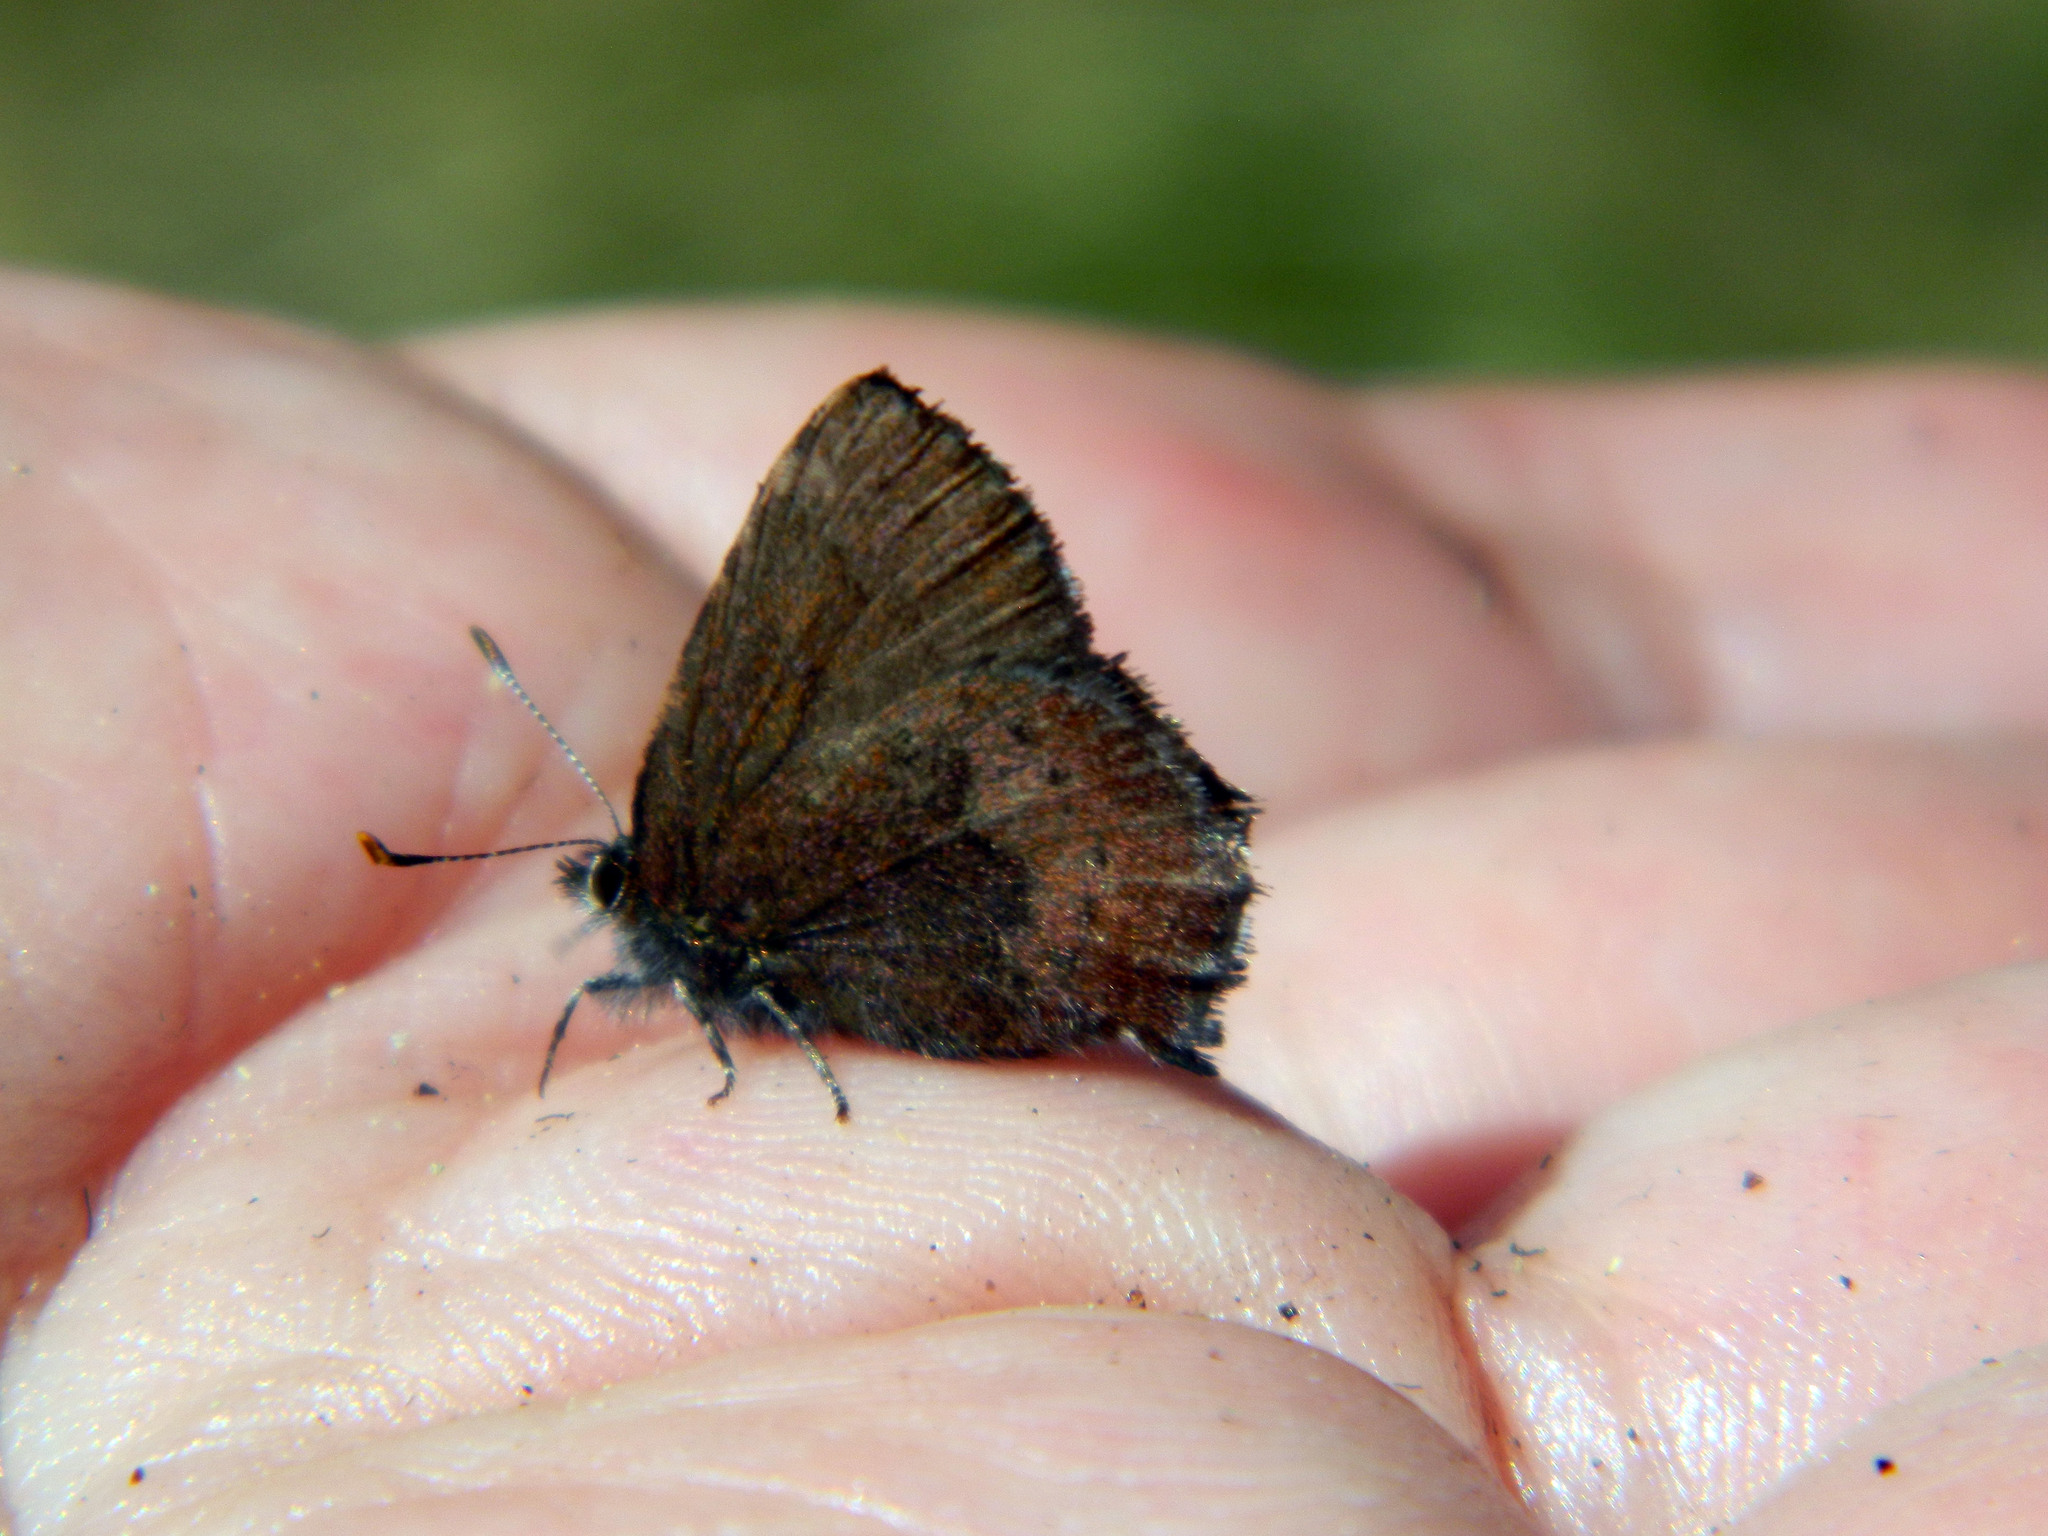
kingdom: Animalia
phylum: Arthropoda
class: Insecta
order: Lepidoptera
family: Lycaenidae
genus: Incisalia
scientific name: Incisalia irioides
